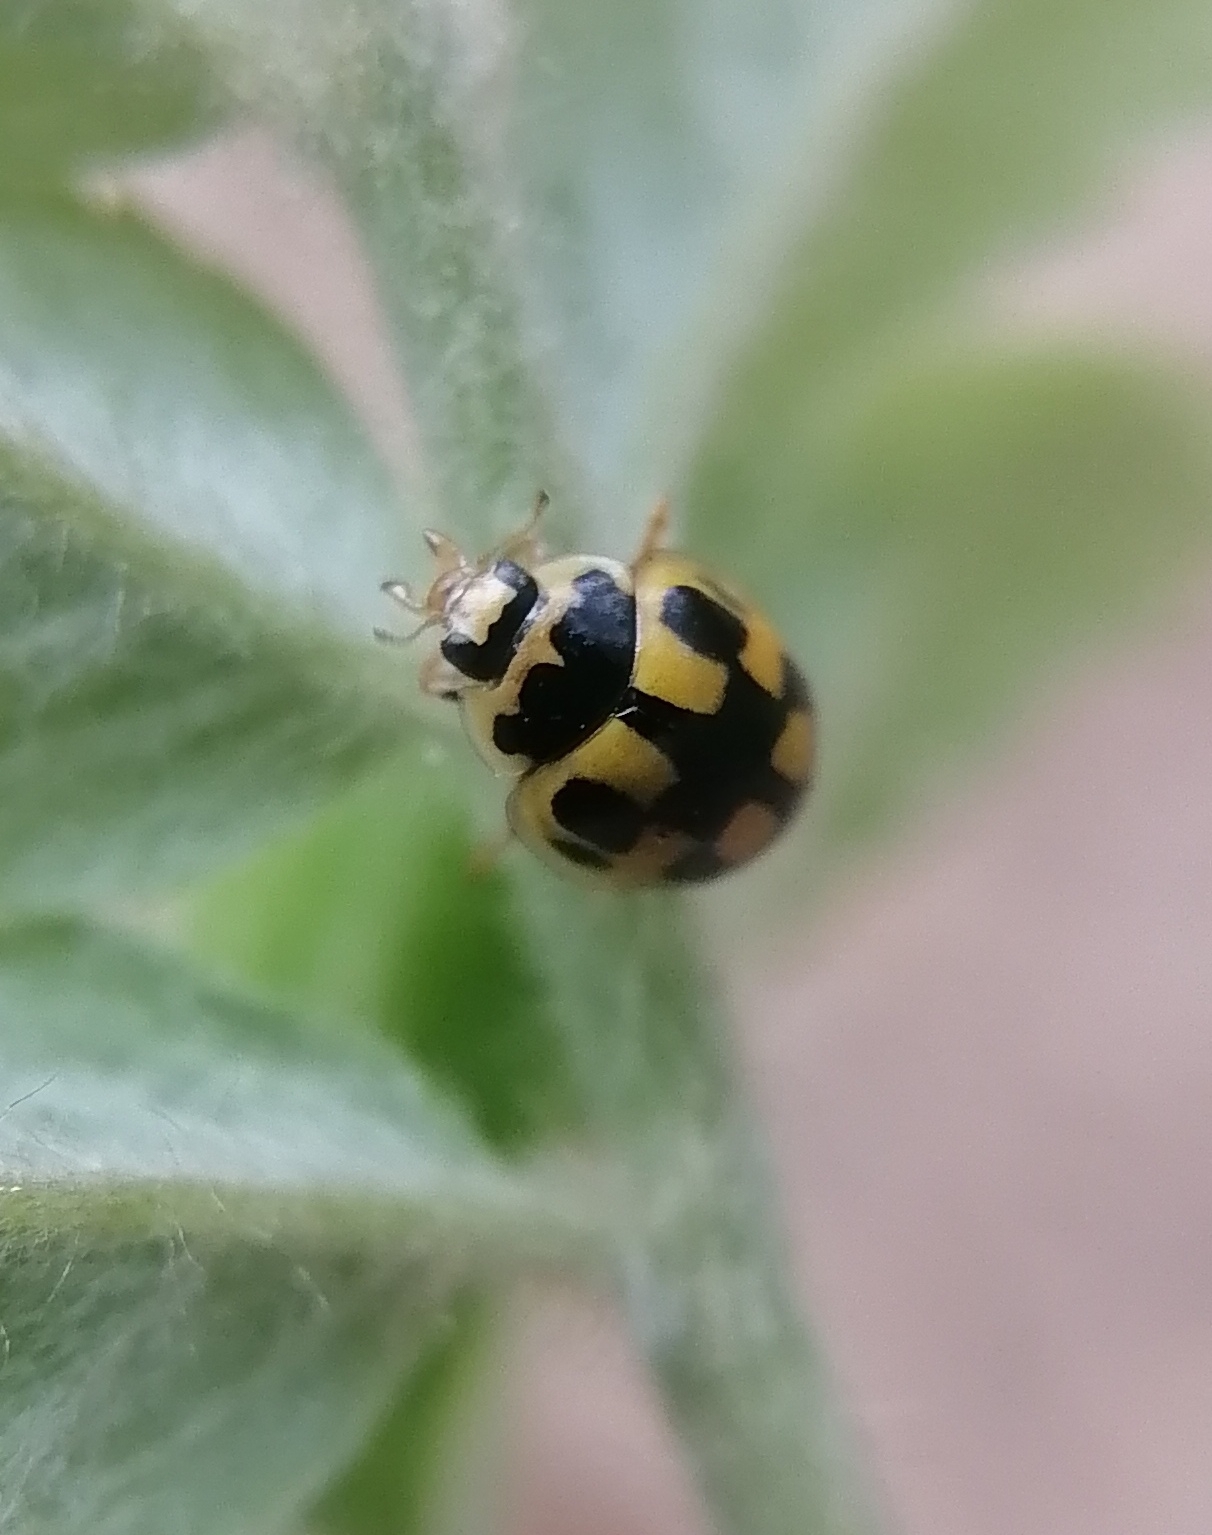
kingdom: Animalia
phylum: Arthropoda
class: Insecta
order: Coleoptera
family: Coccinellidae
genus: Propylaea
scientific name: Propylaea quatuordecimpunctata
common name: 14-spotted ladybird beetle
